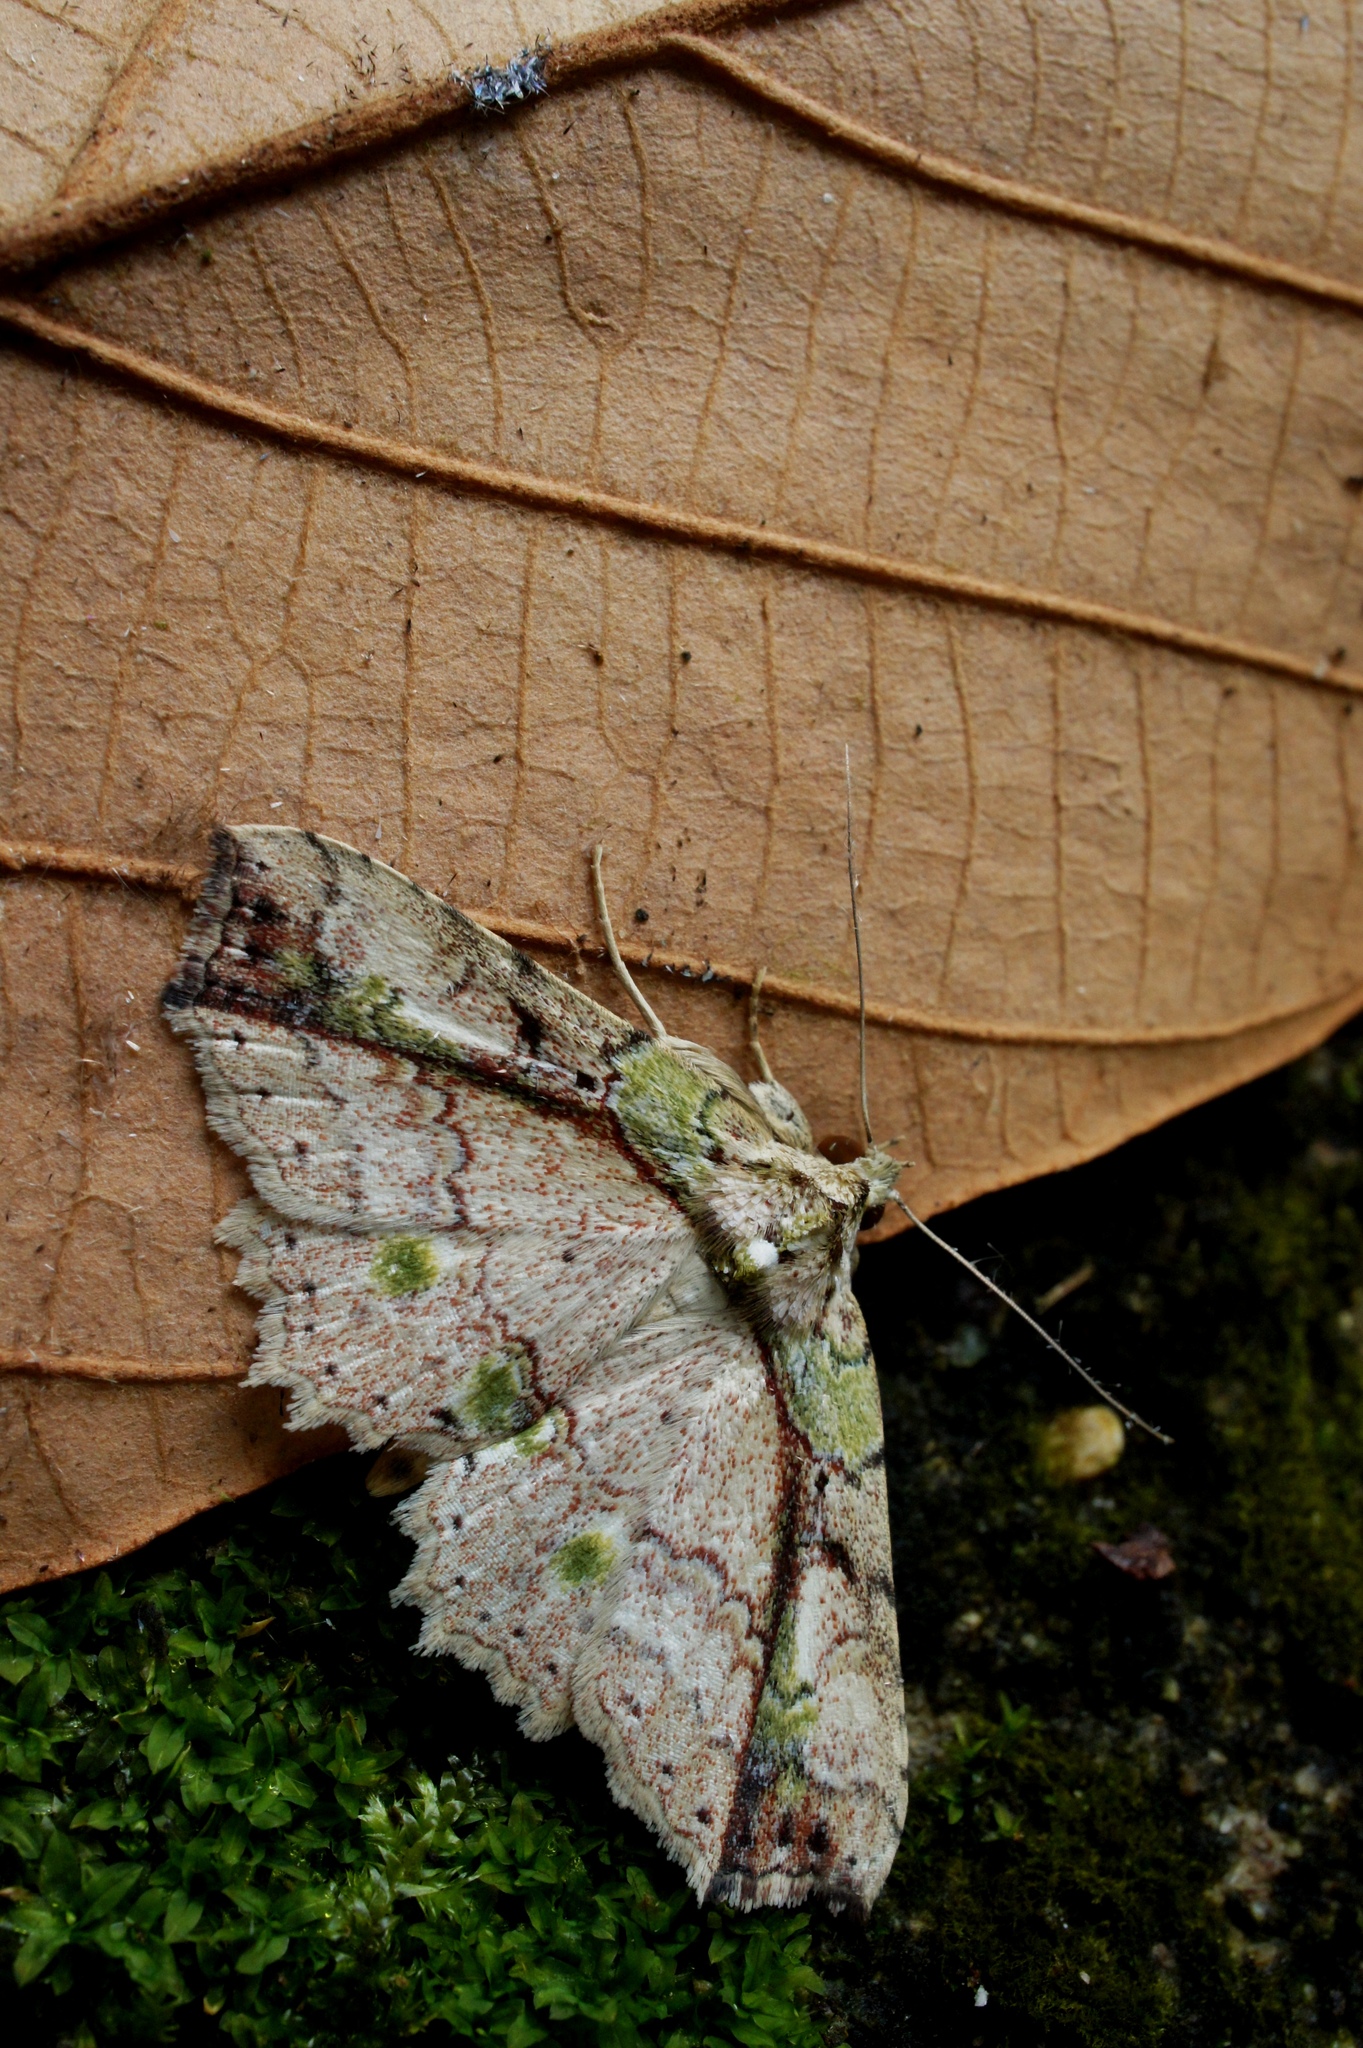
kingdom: Animalia
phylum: Arthropoda
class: Insecta
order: Lepidoptera
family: Erebidae
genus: Tamba
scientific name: Tamba mnionomera
